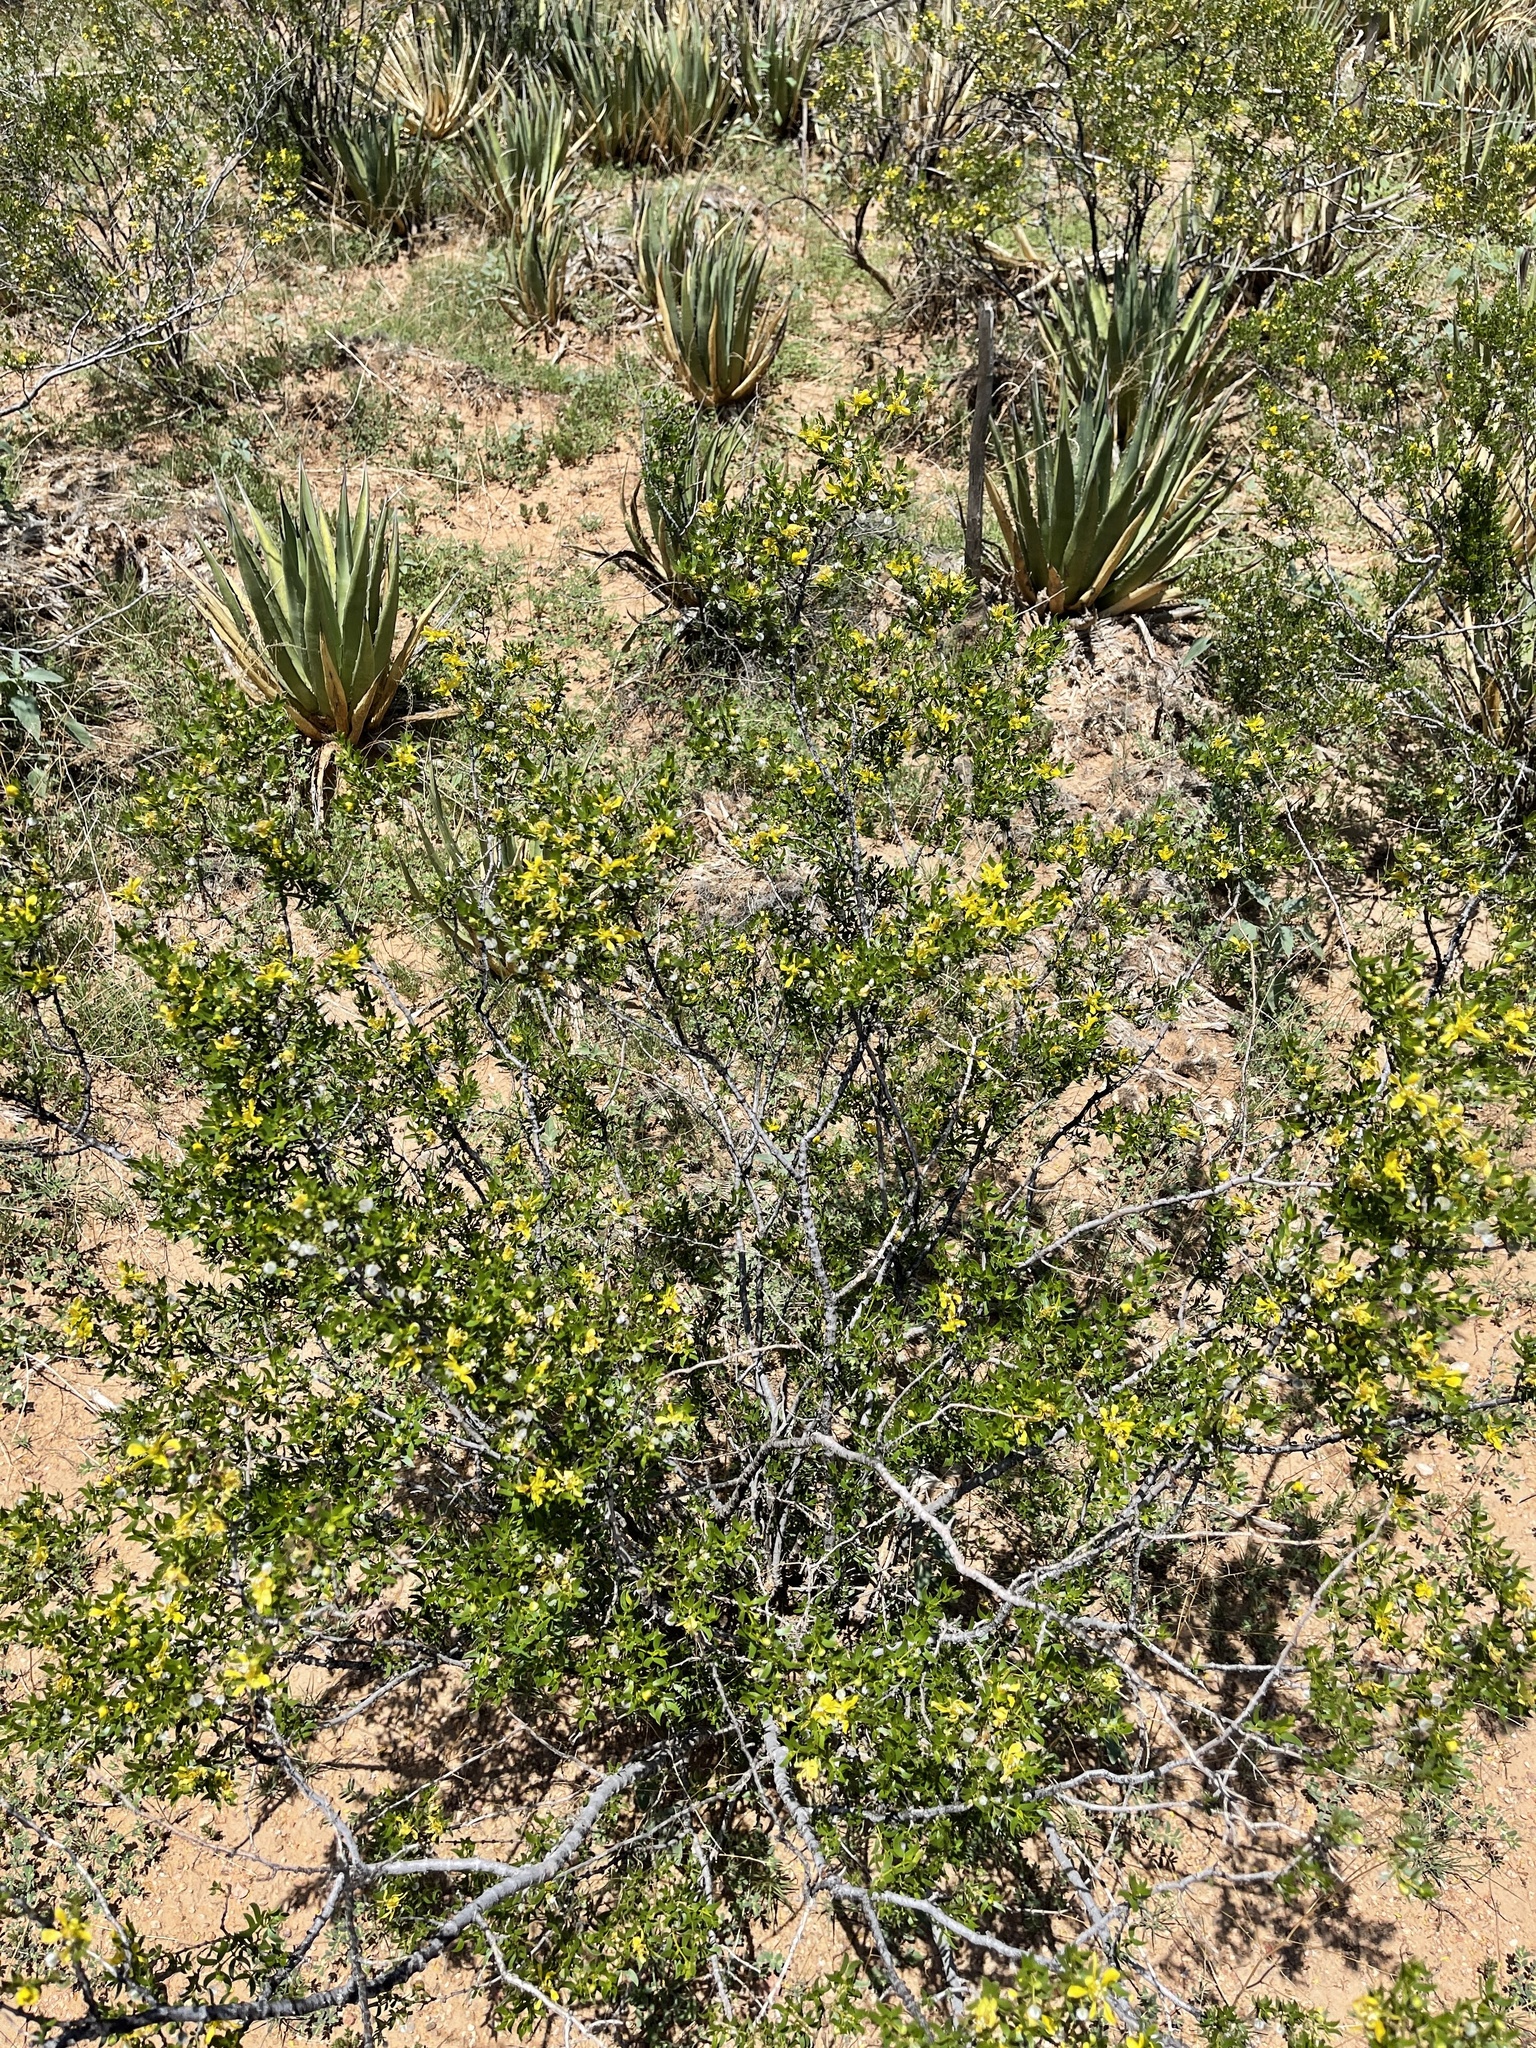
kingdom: Plantae
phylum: Tracheophyta
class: Magnoliopsida
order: Zygophyllales
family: Zygophyllaceae
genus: Larrea
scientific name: Larrea tridentata
